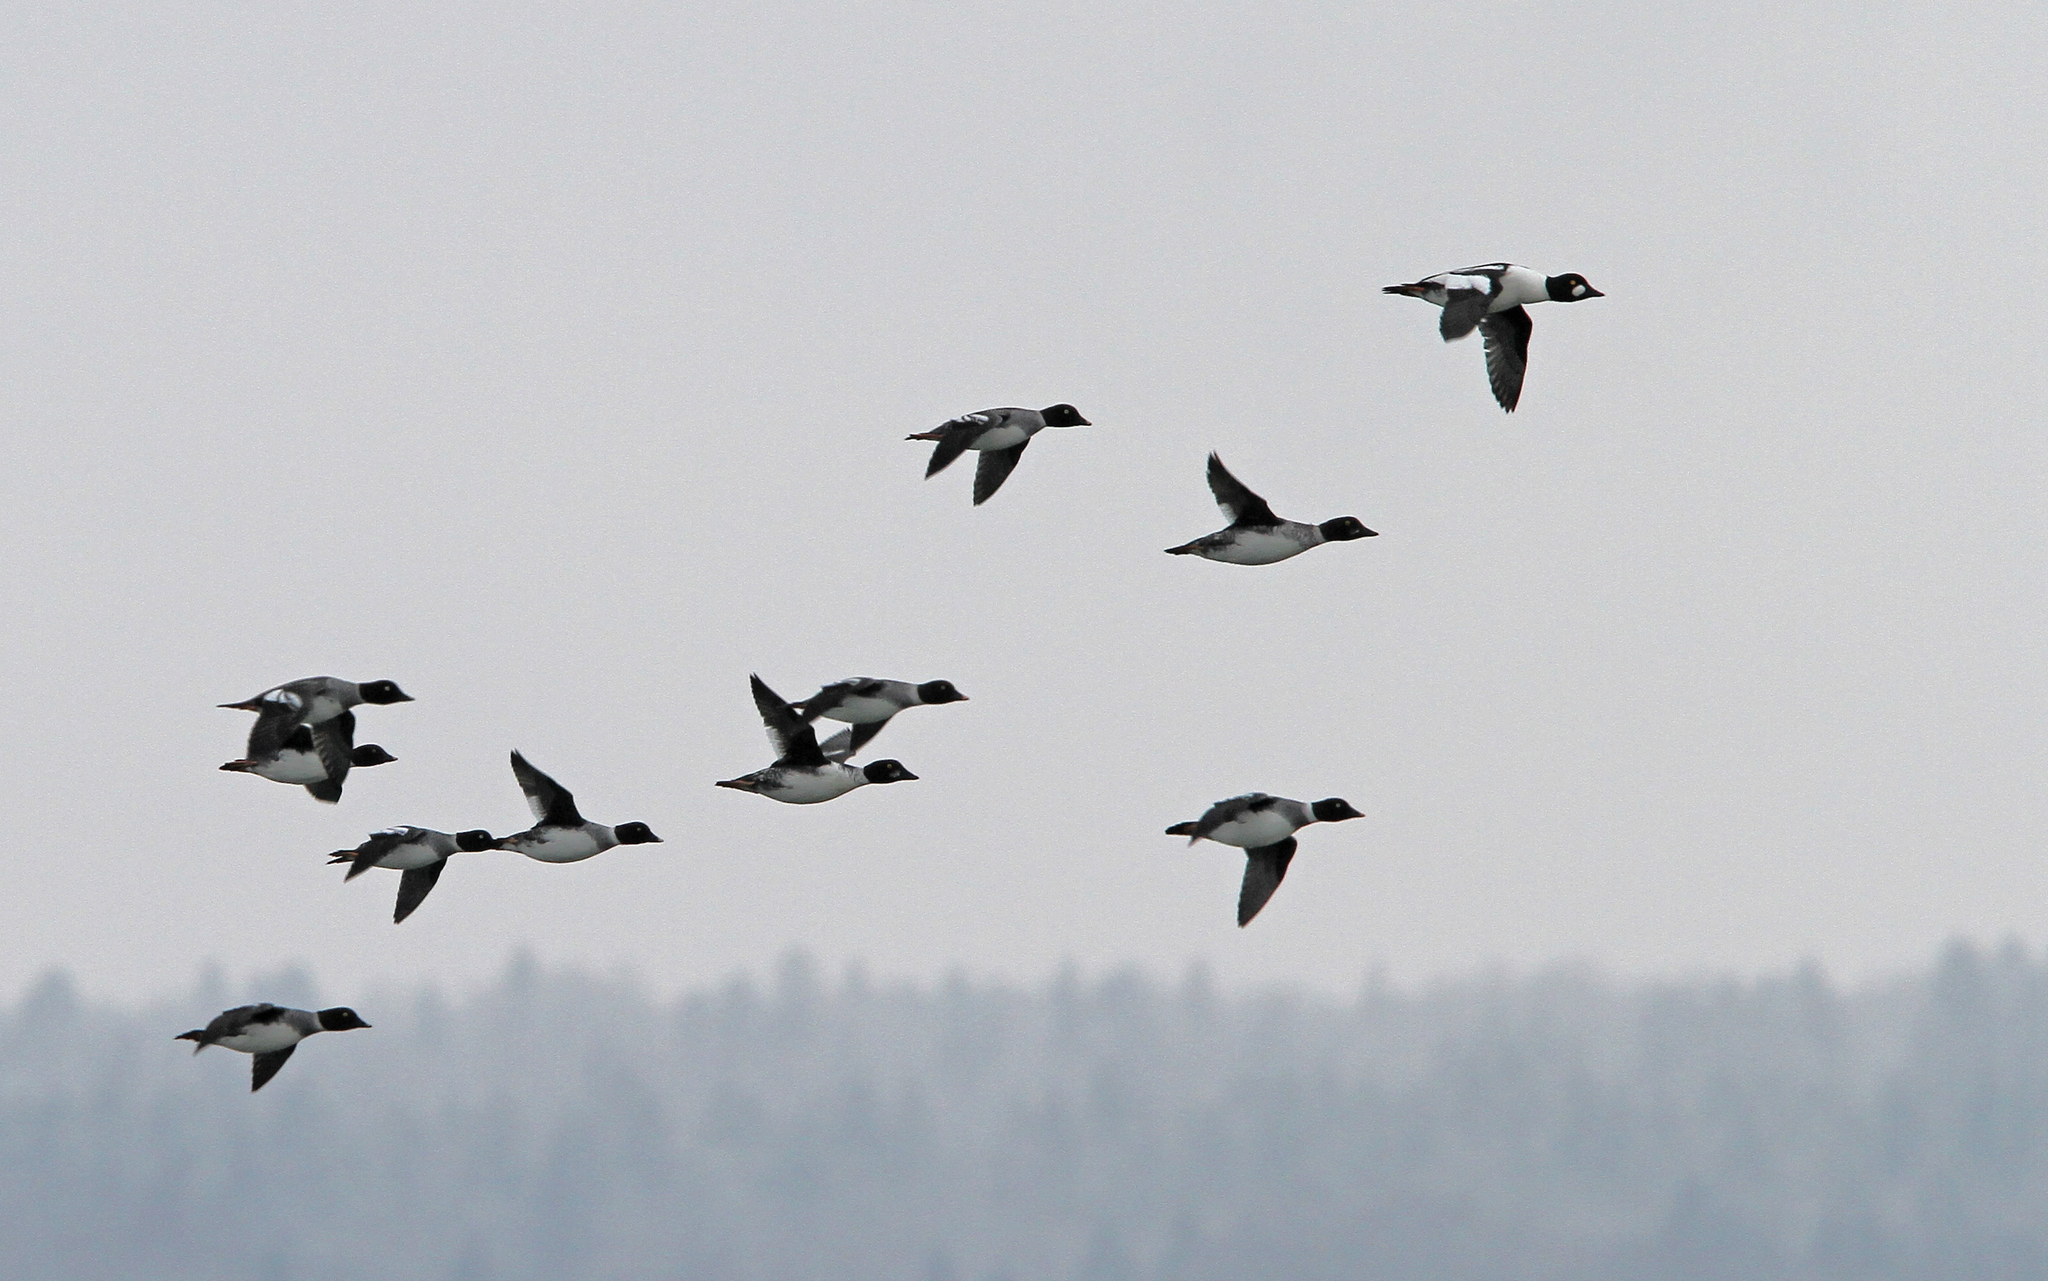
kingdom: Animalia
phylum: Chordata
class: Aves
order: Anseriformes
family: Anatidae
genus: Bucephala
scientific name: Bucephala clangula
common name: Common goldeneye
